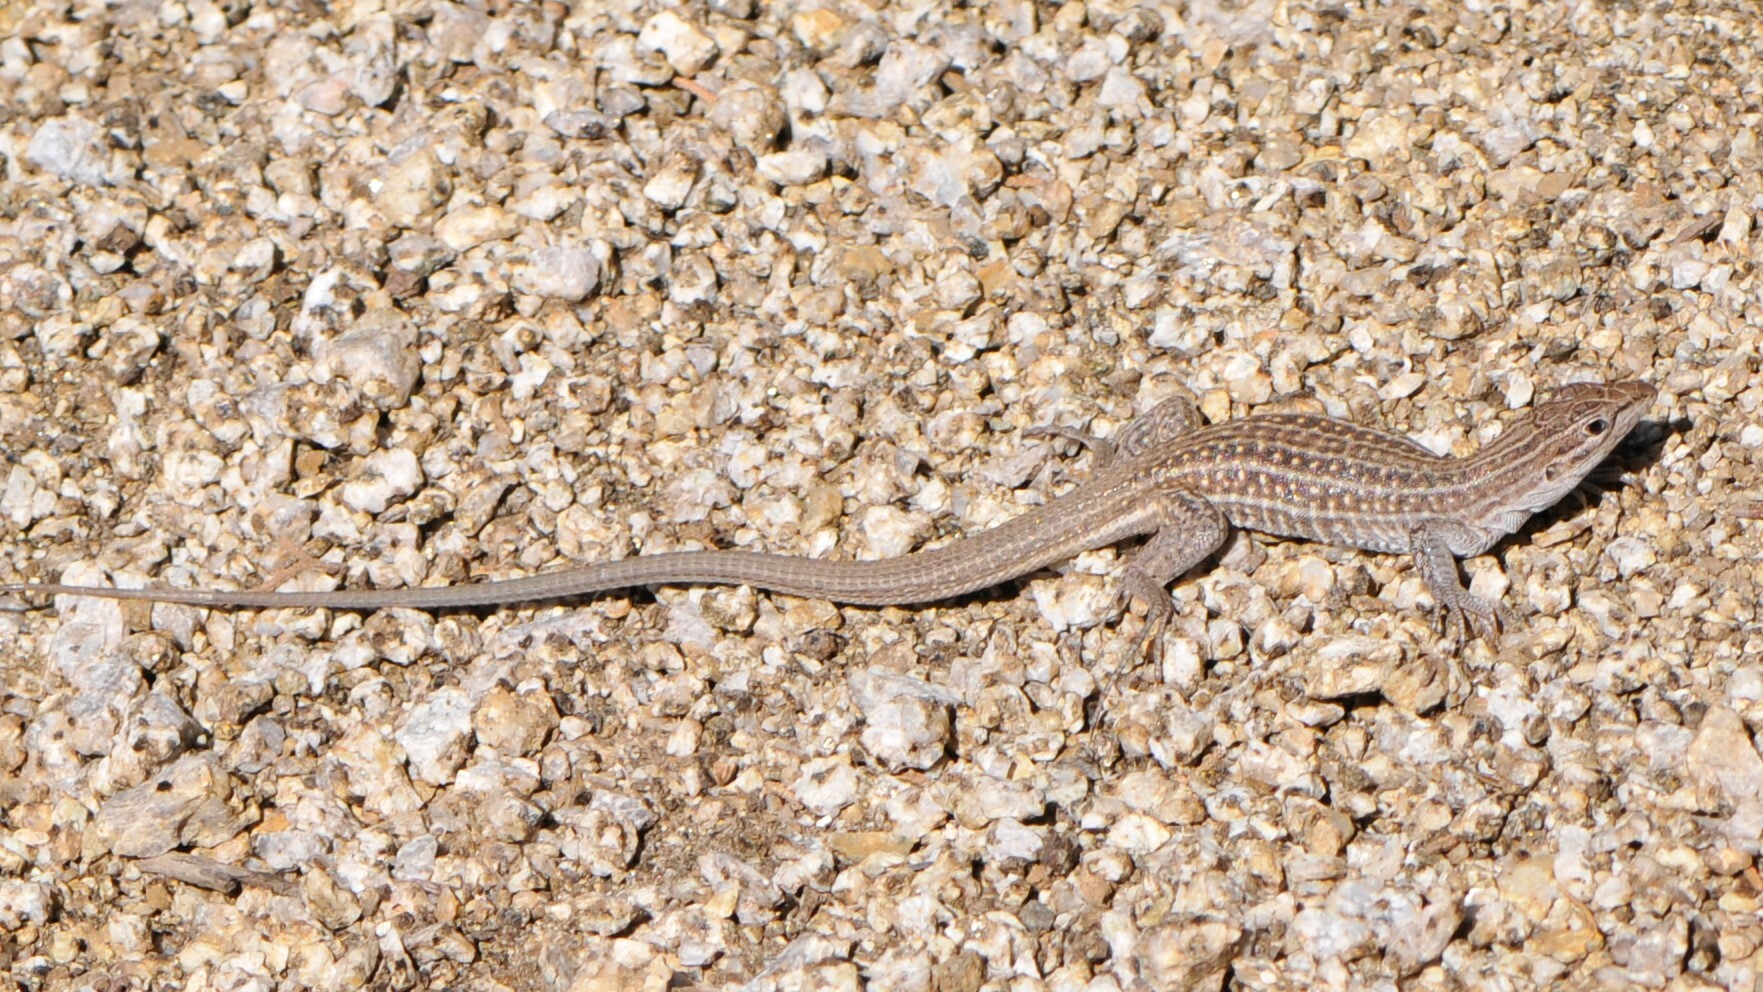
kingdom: Animalia
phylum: Chordata
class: Squamata
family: Teiidae
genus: Aspidoscelis
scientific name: Aspidoscelis exsanguis
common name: Chihuahuan spotted whiptail
